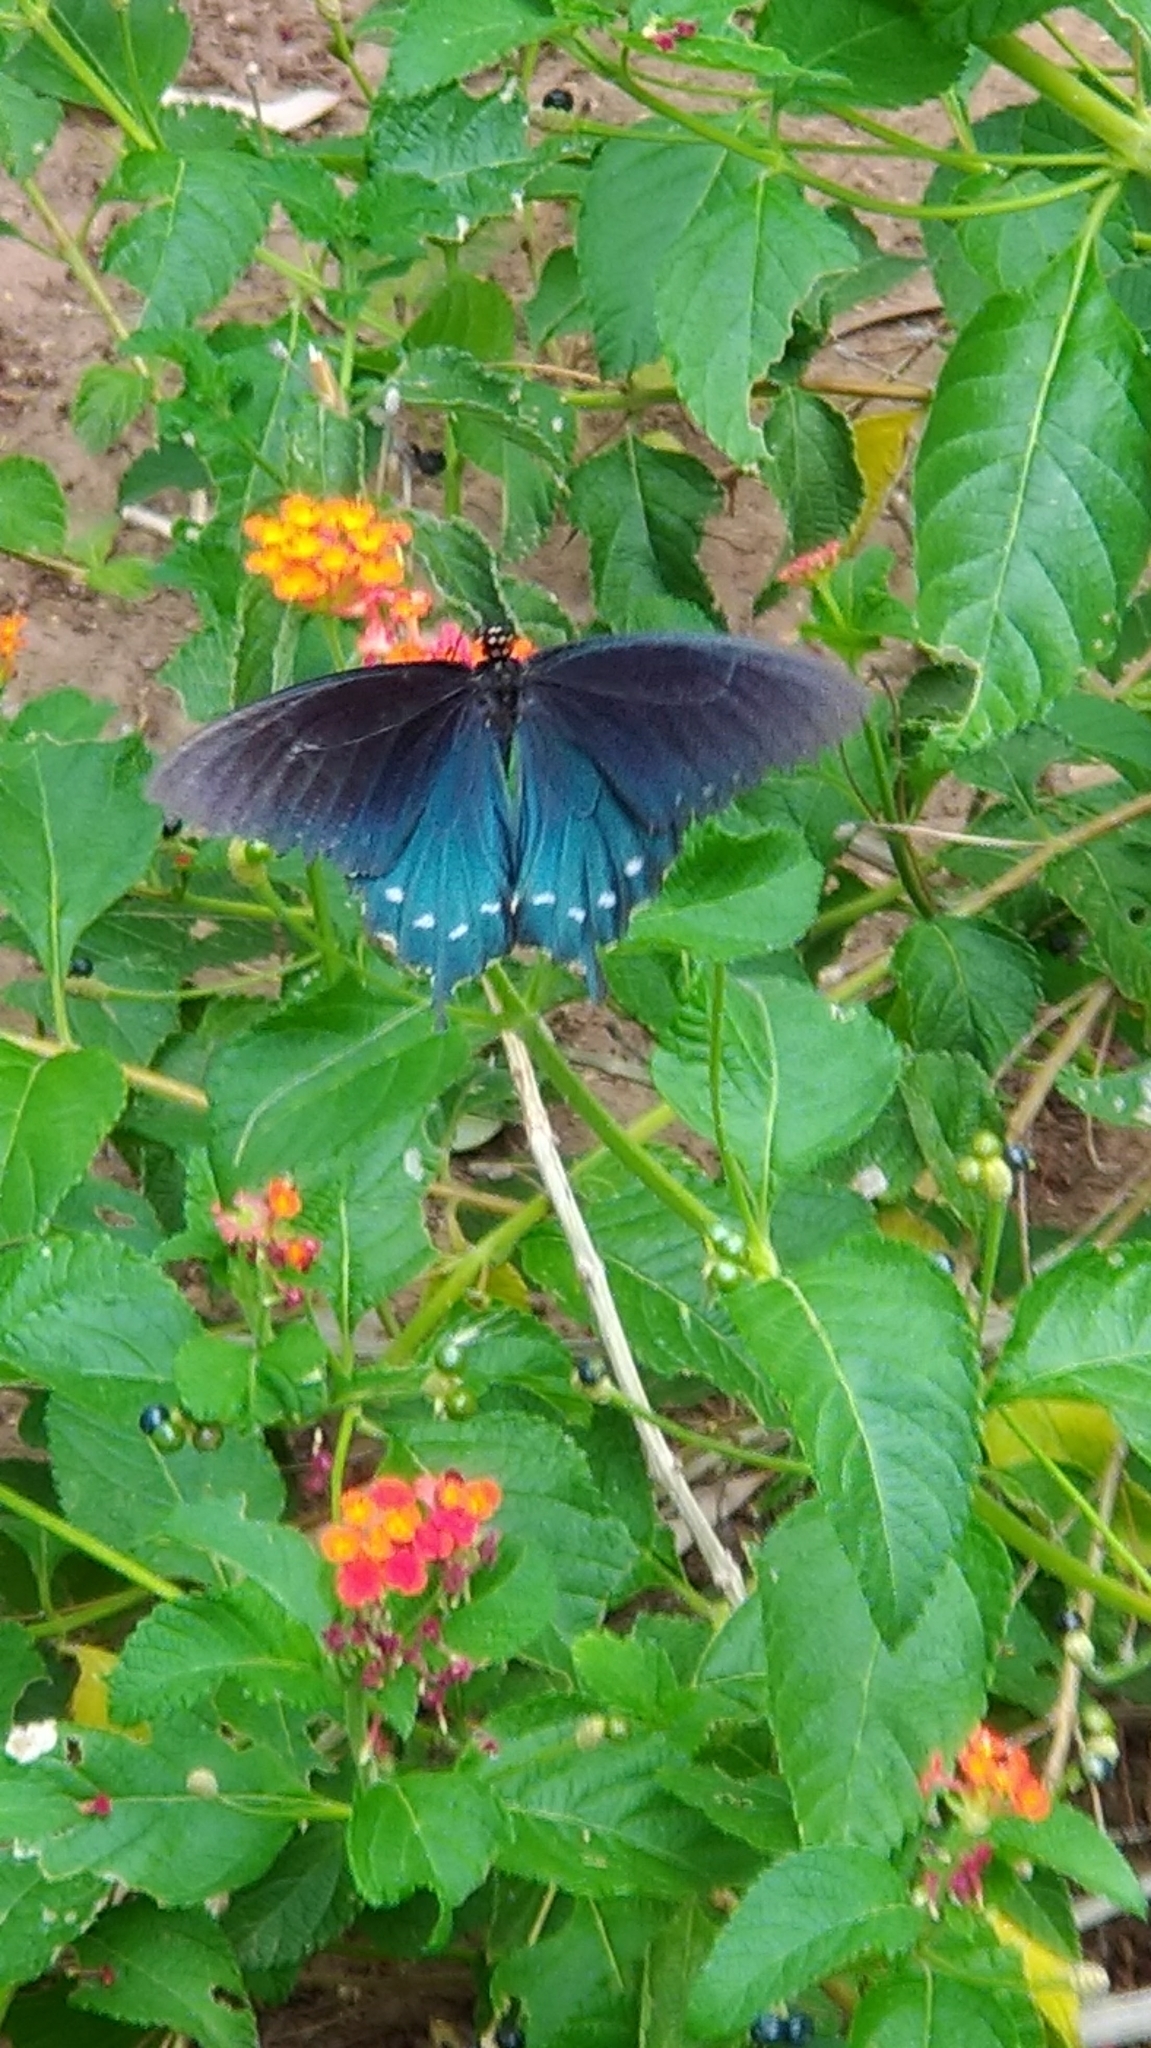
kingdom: Animalia
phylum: Arthropoda
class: Insecta
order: Lepidoptera
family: Papilionidae
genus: Battus
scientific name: Battus philenor
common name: Pipevine swallowtail
